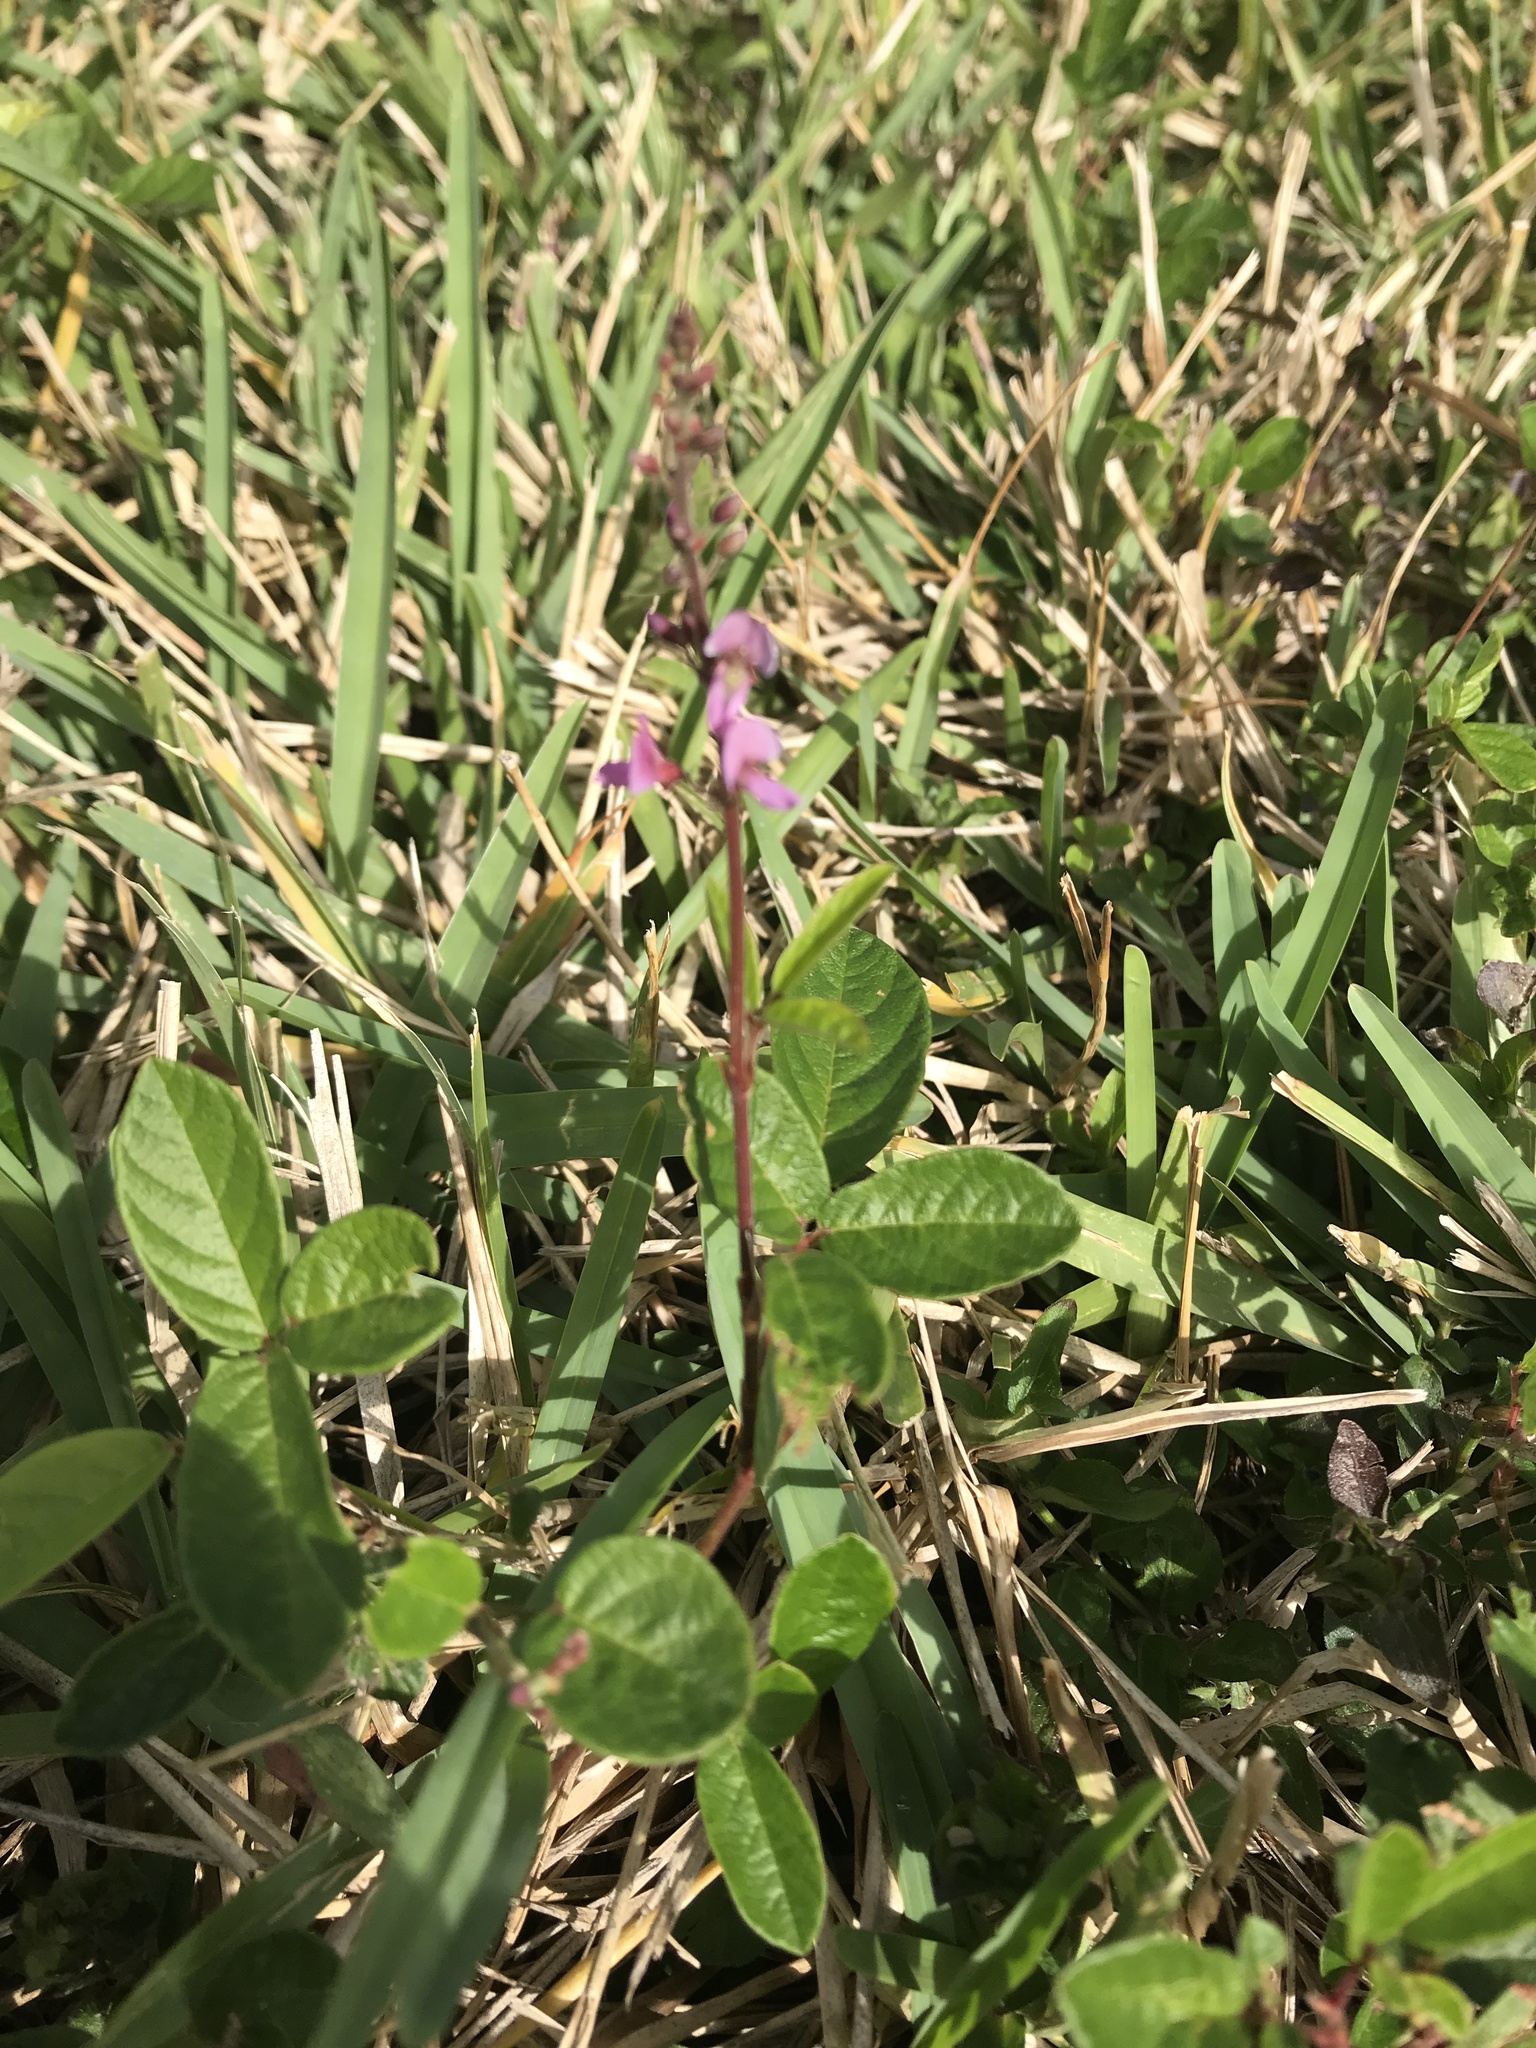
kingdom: Plantae
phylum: Tracheophyta
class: Magnoliopsida
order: Fabales
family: Fabaceae
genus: Desmodium
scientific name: Desmodium incanum
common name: Tickclover
